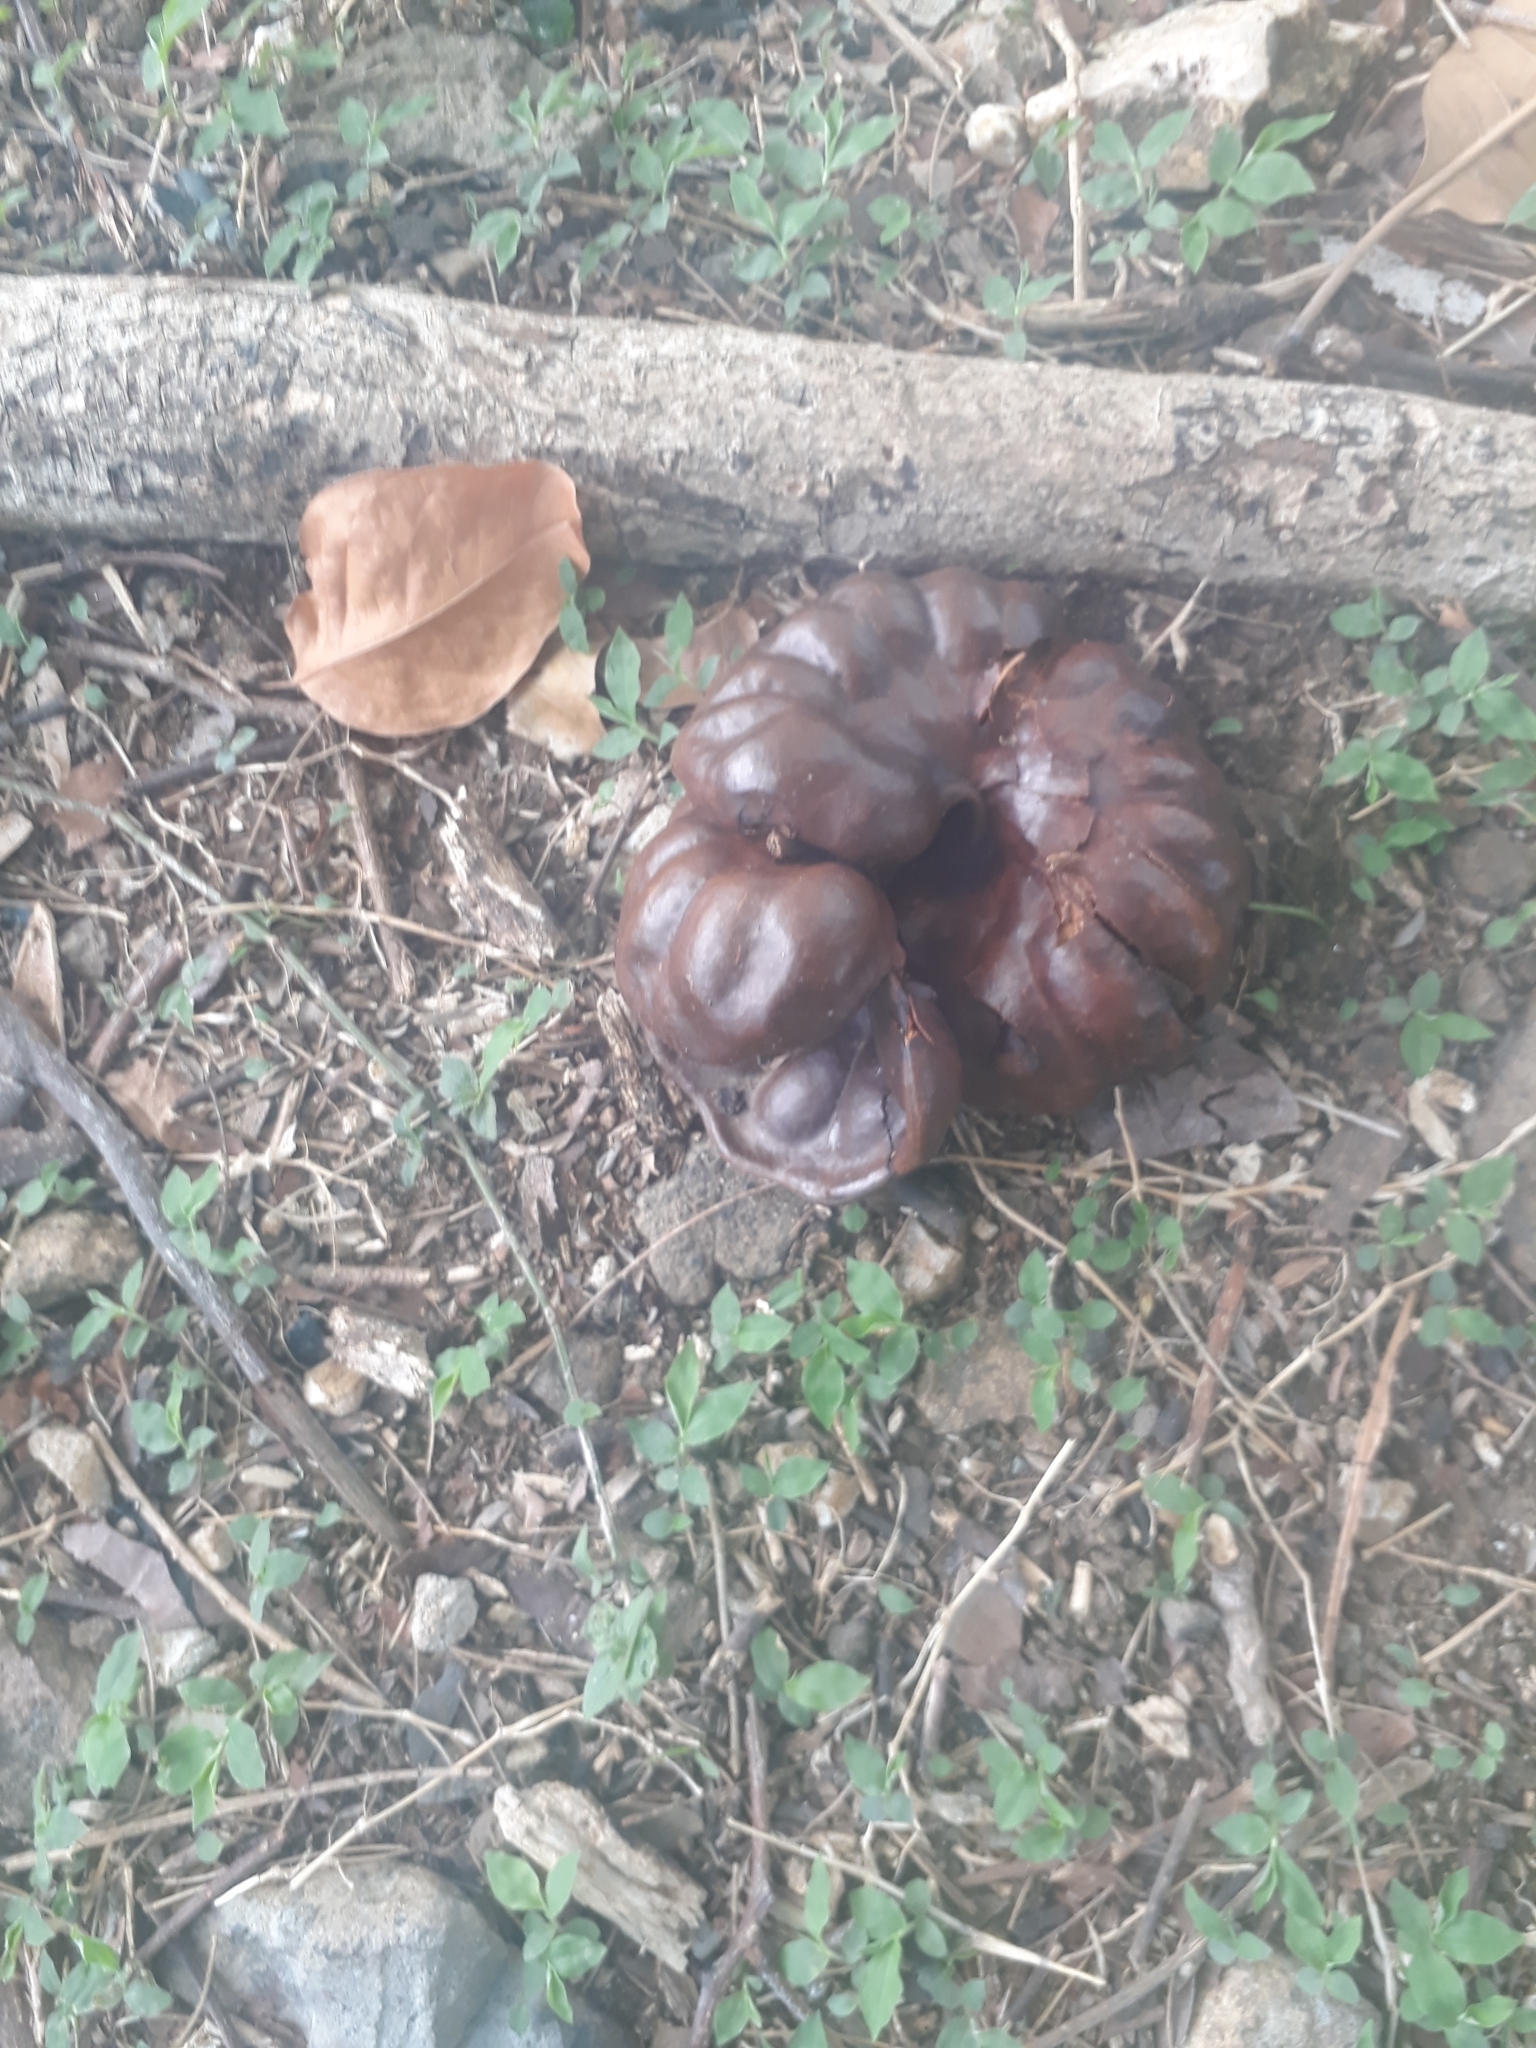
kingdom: Plantae
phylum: Tracheophyta
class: Magnoliopsida
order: Fabales
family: Fabaceae
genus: Enterolobium
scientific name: Enterolobium cyclocarpum
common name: Ear tree
